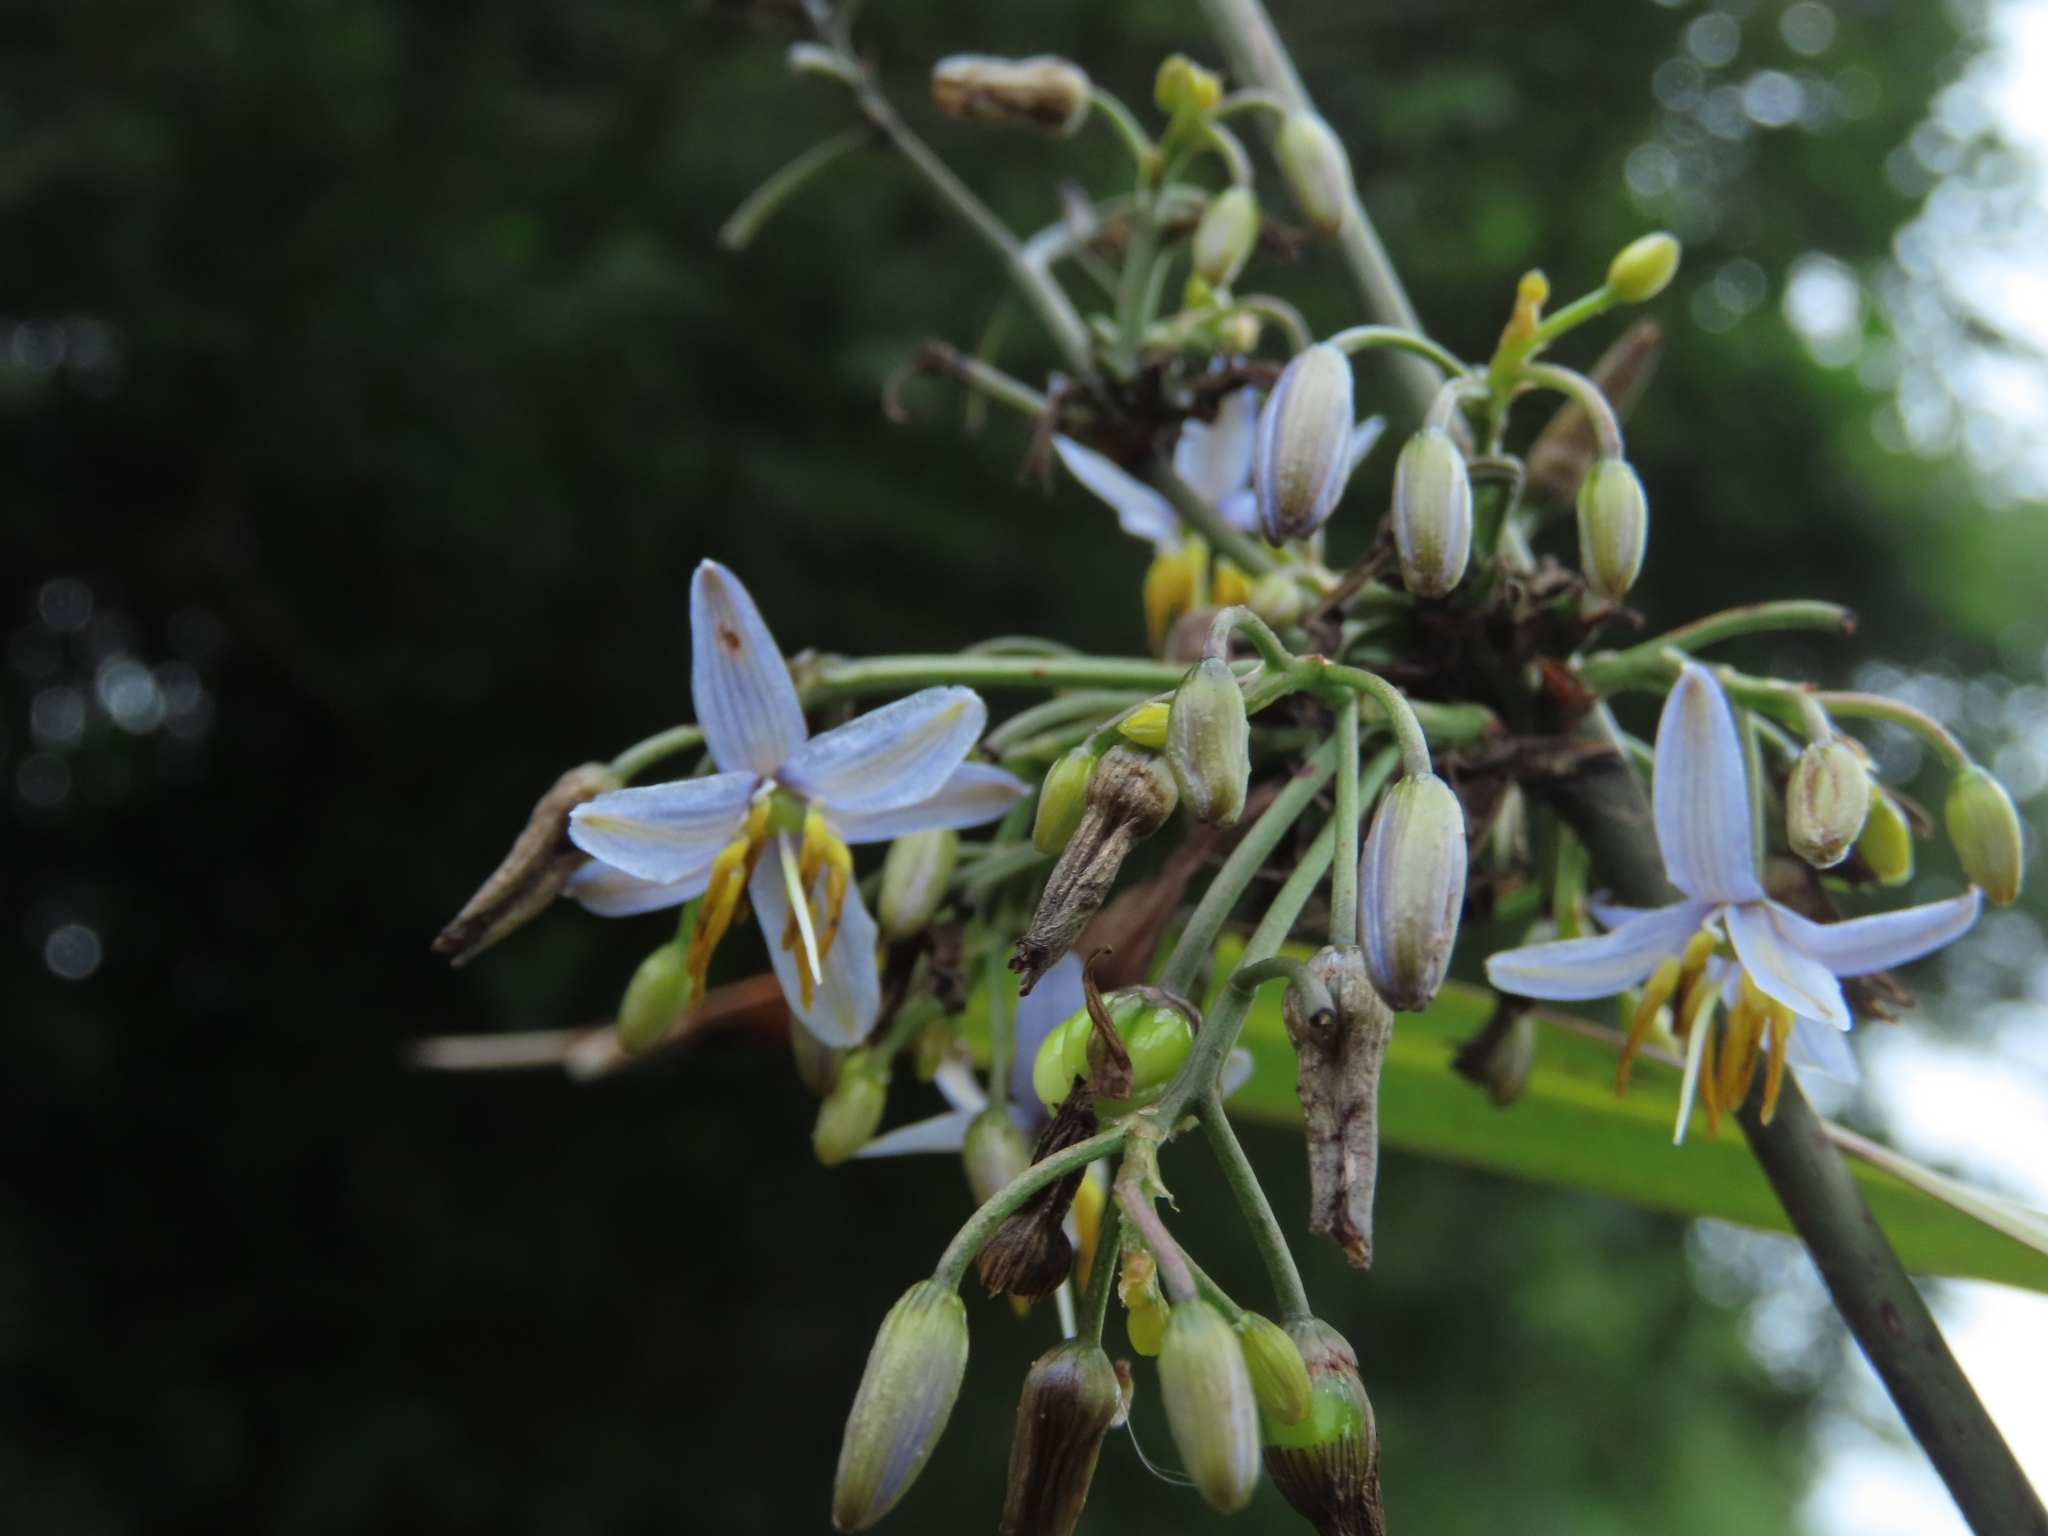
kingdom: Plantae
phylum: Tracheophyta
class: Liliopsida
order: Asparagales
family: Asphodelaceae
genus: Dianella
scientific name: Dianella ensifolia
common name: New zealand lilyplant
